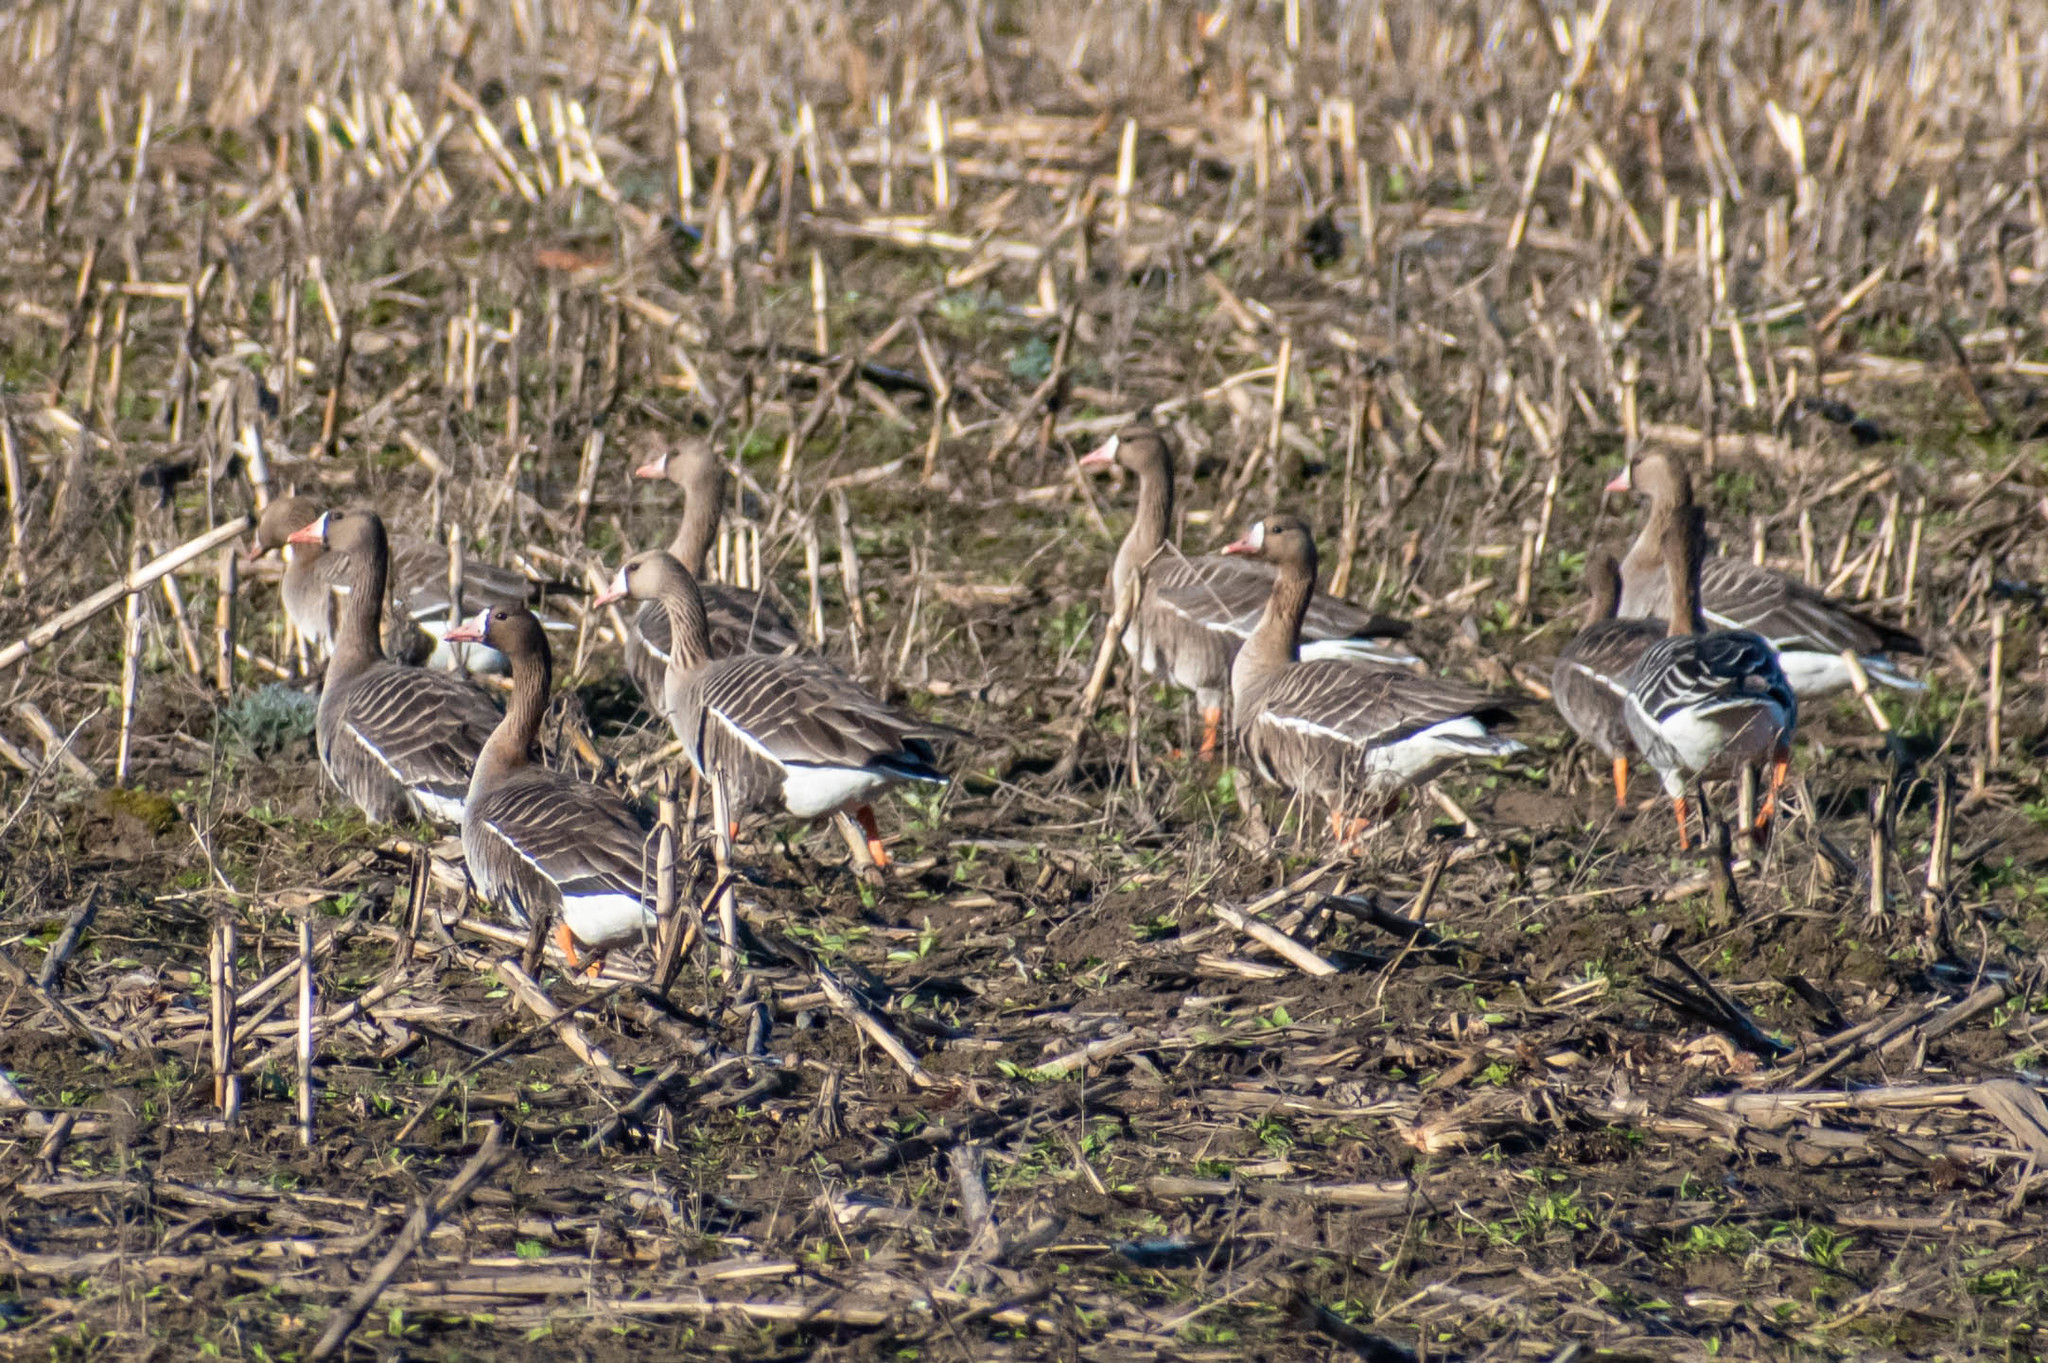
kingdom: Animalia
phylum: Chordata
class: Aves
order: Anseriformes
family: Anatidae
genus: Anser
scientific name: Anser albifrons
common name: Greater white-fronted goose
